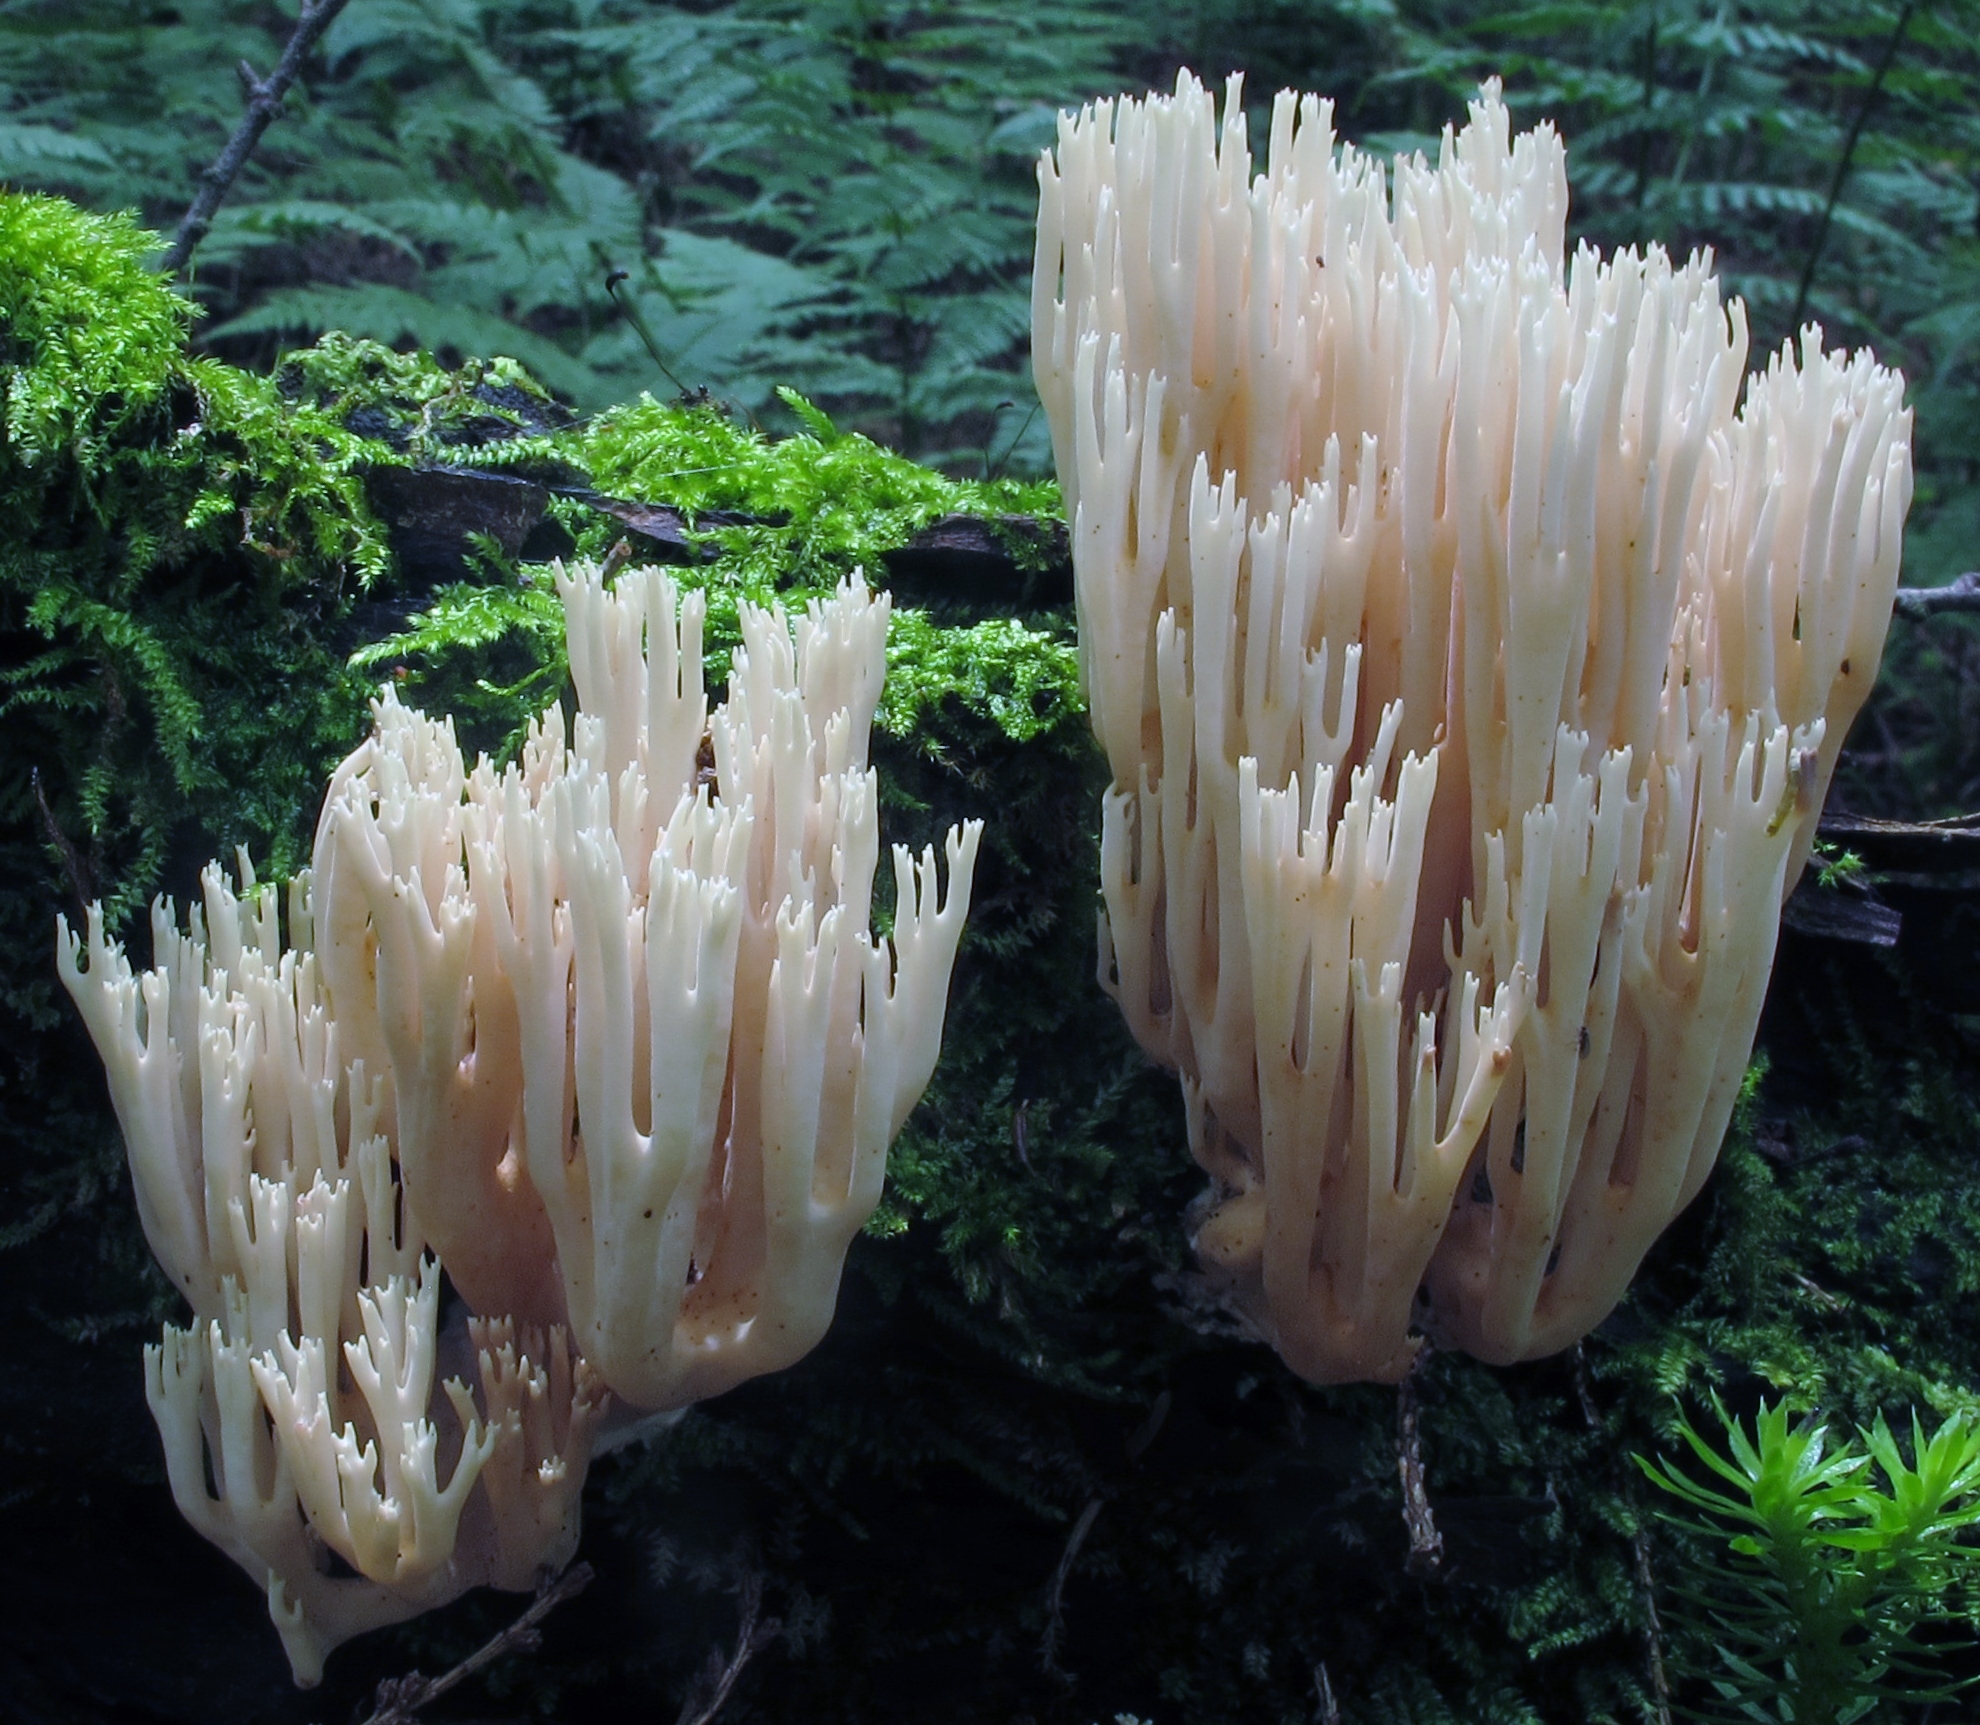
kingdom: Fungi
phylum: Basidiomycota
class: Agaricomycetes
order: Gomphales
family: Gomphaceae
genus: Ramaria
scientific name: Ramaria stricta
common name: Upright coral
